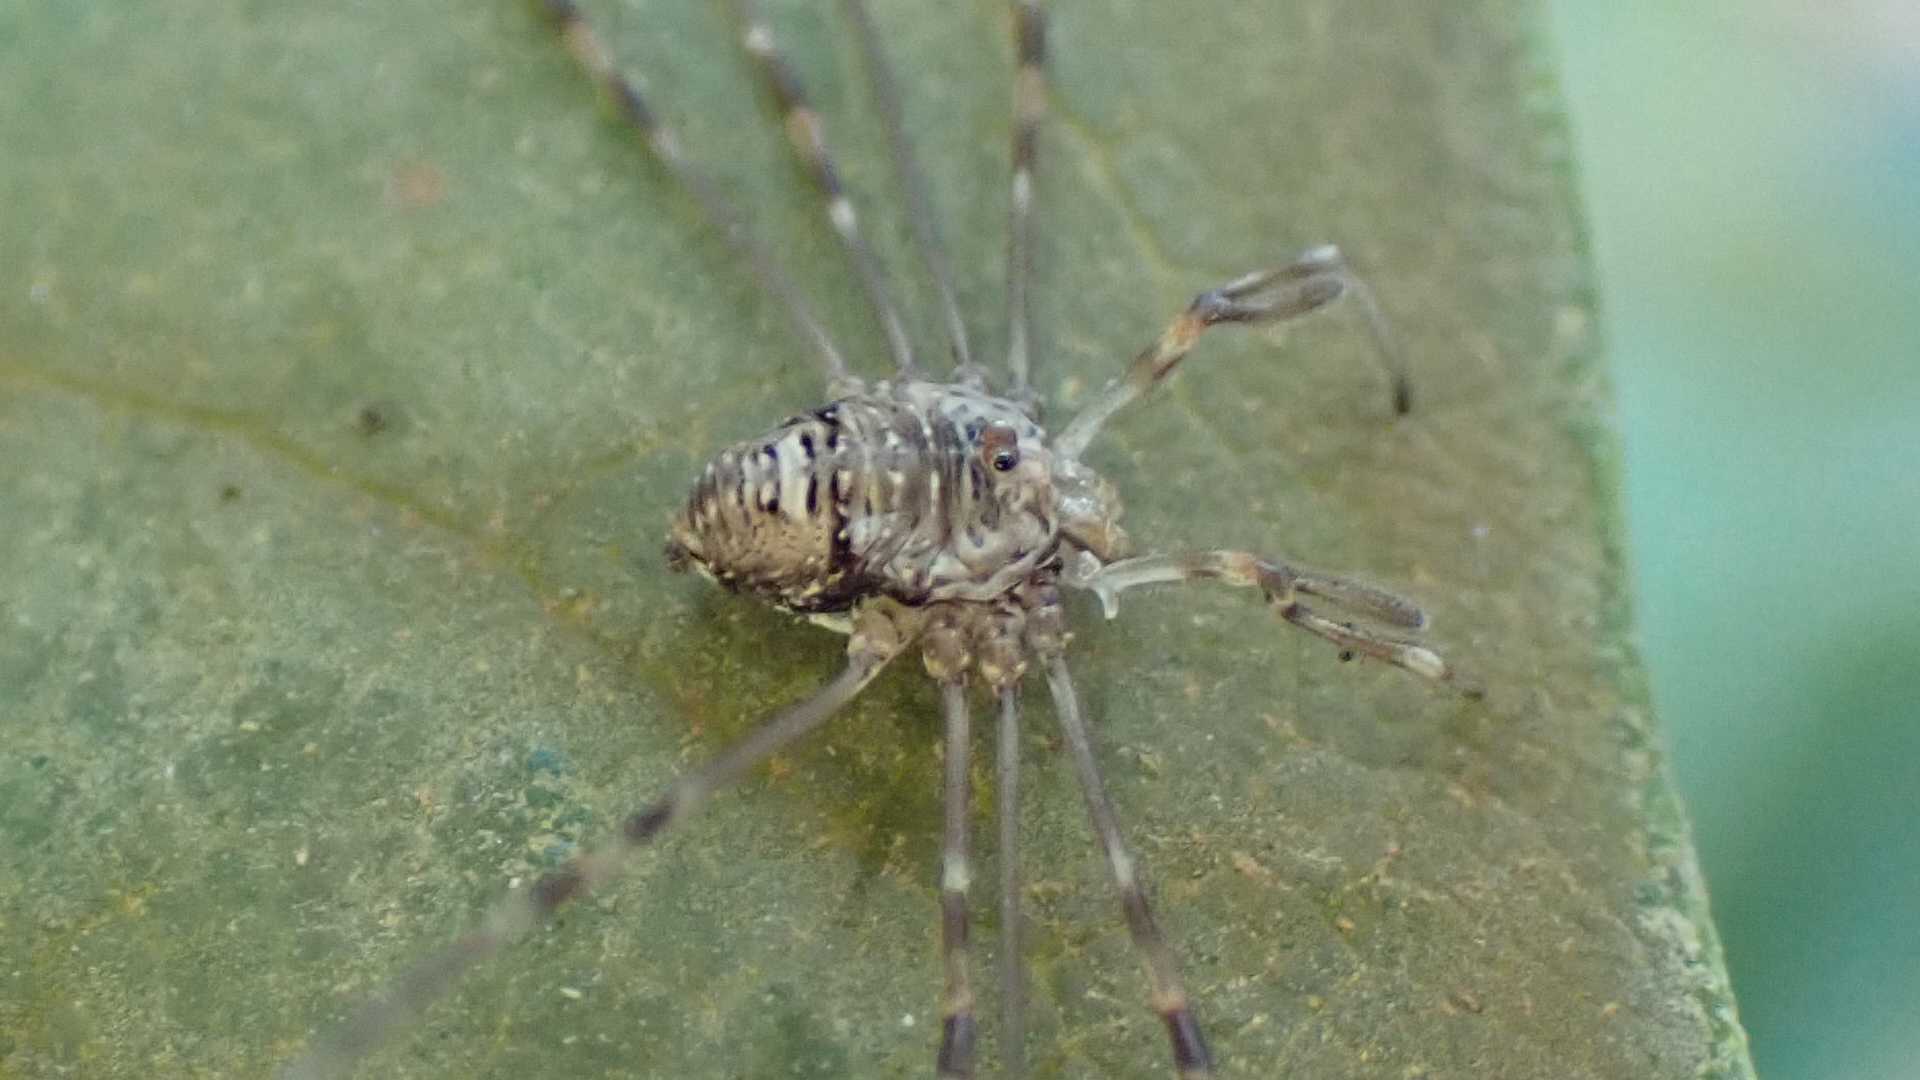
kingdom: Animalia
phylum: Arthropoda
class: Arachnida
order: Opiliones
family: Phalangiidae
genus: Dicranopalpus
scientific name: Dicranopalpus ramosus
